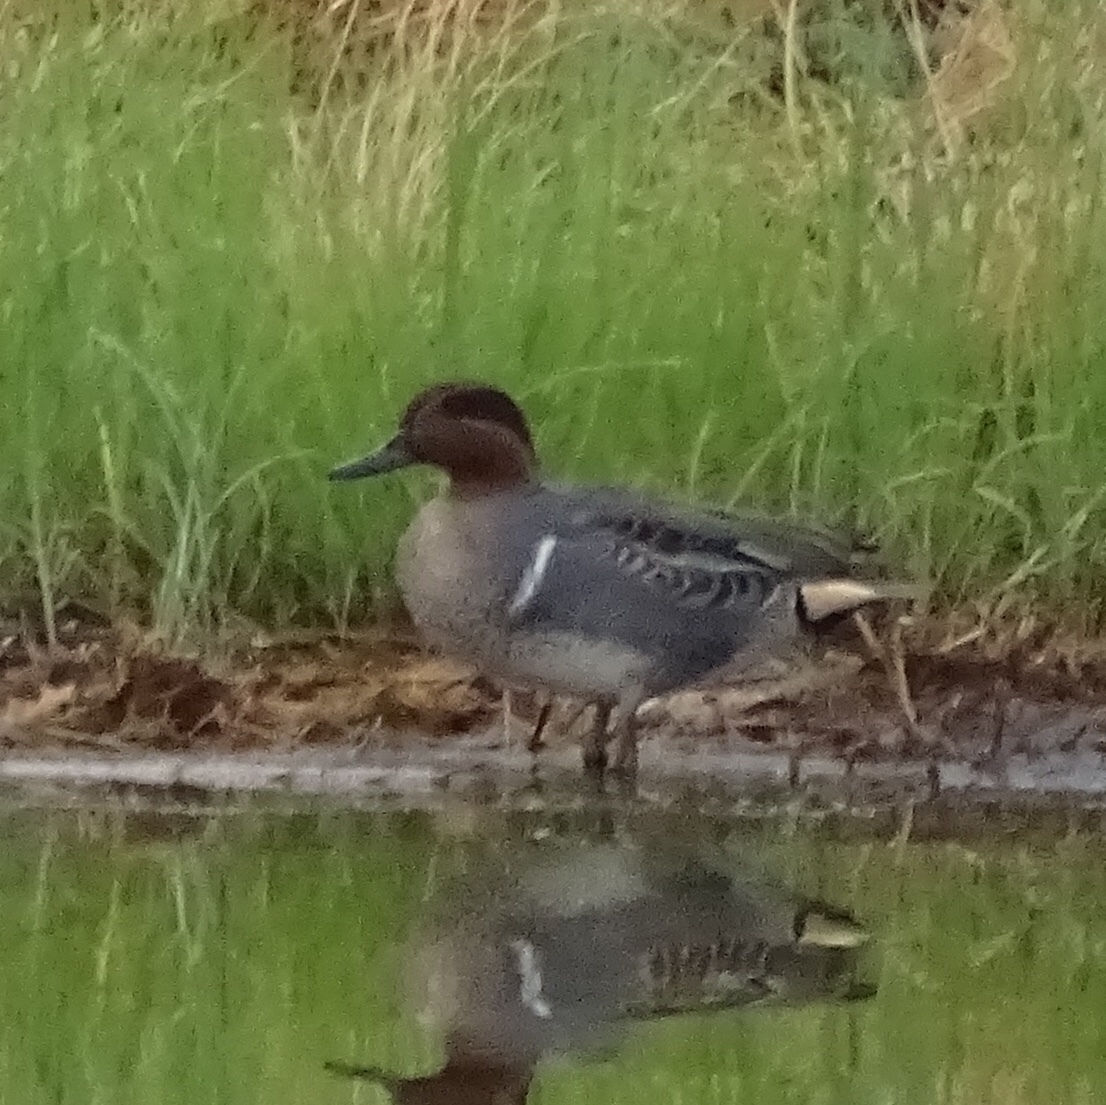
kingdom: Animalia
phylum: Chordata
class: Aves
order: Anseriformes
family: Anatidae
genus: Anas
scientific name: Anas crecca
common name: Eurasian teal
